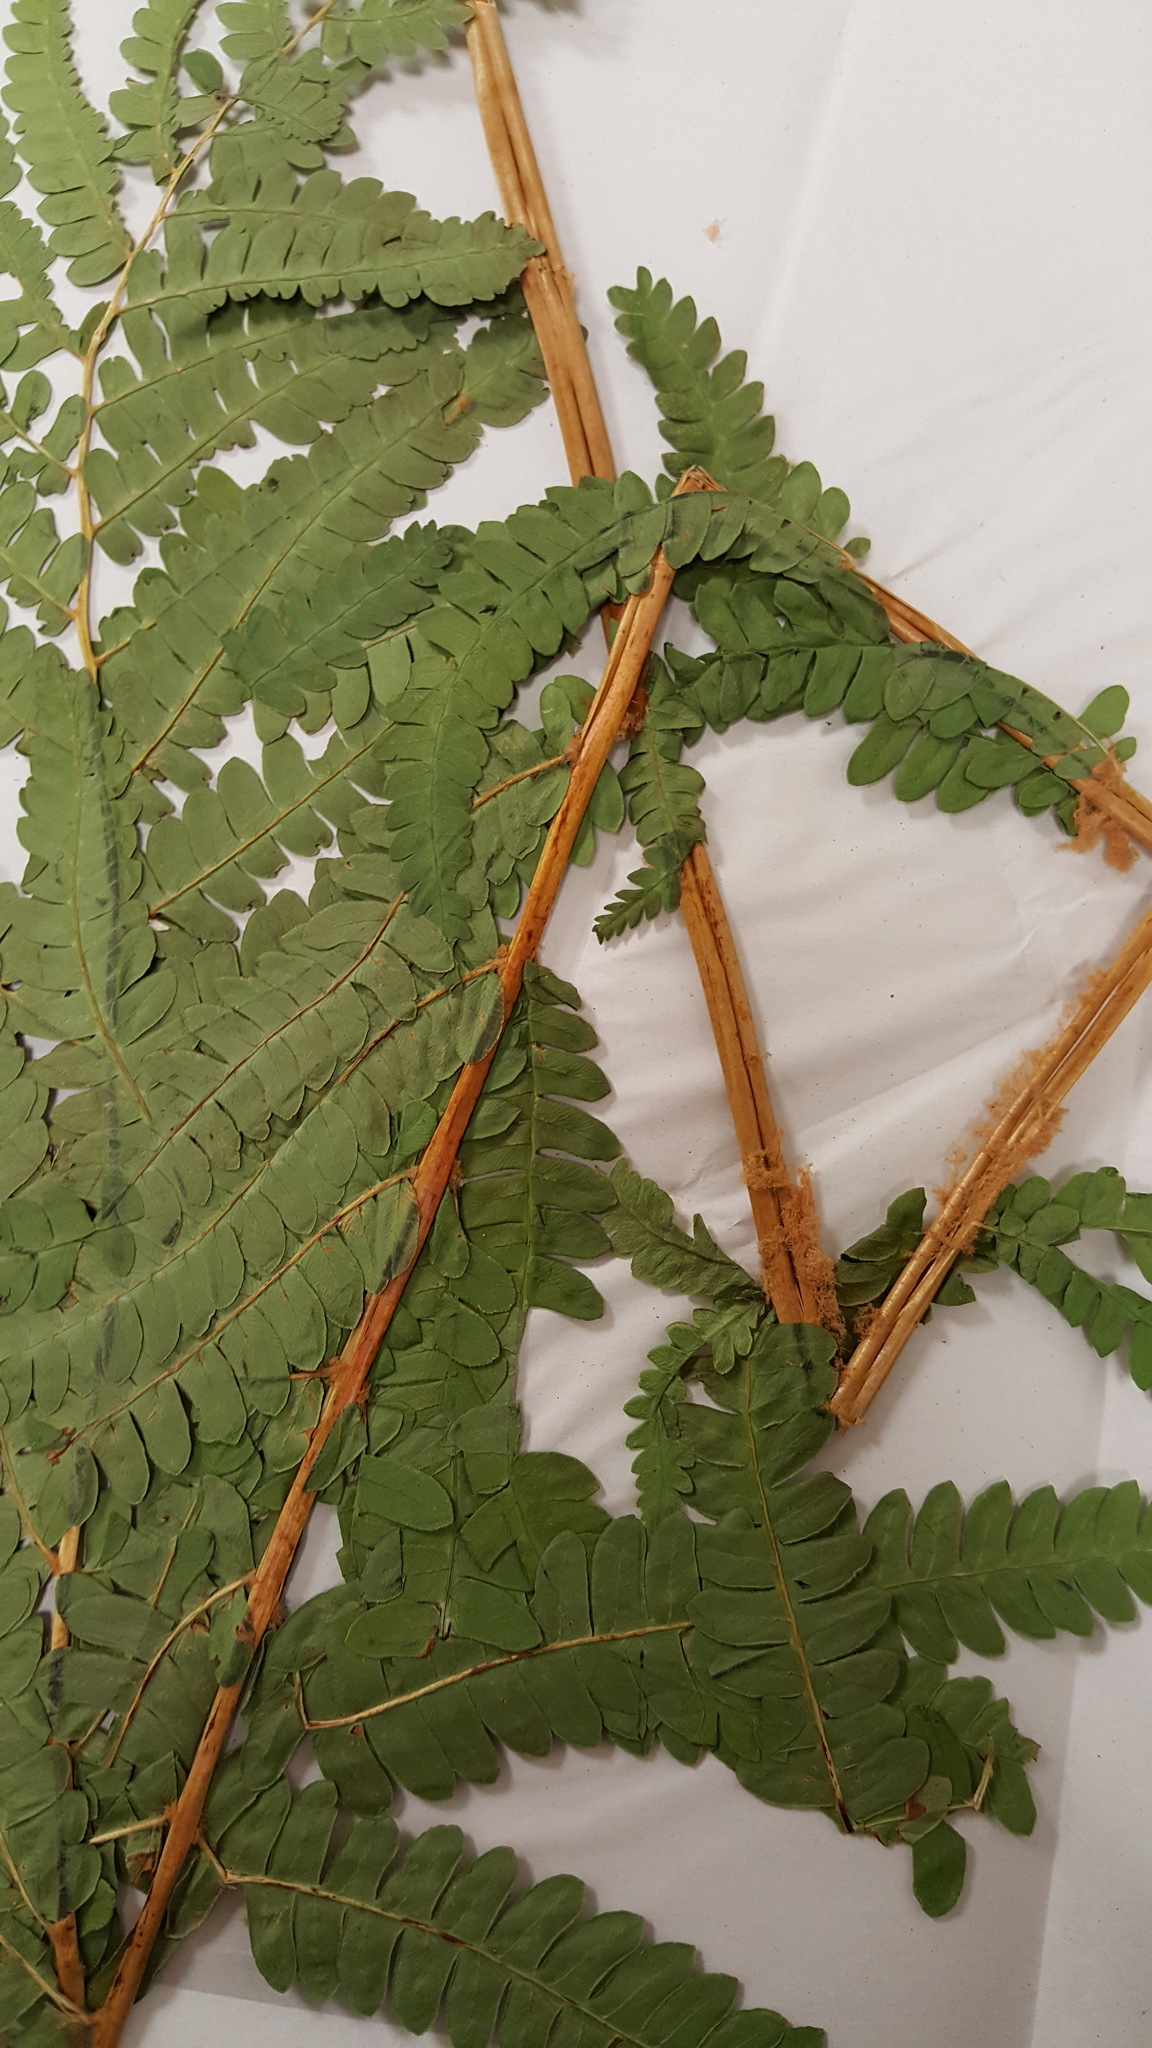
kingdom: Plantae
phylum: Tracheophyta
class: Polypodiopsida
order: Osmundales
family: Osmundaceae
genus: Osmundastrum
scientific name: Osmundastrum cinnamomeum
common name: Cinnamon fern
